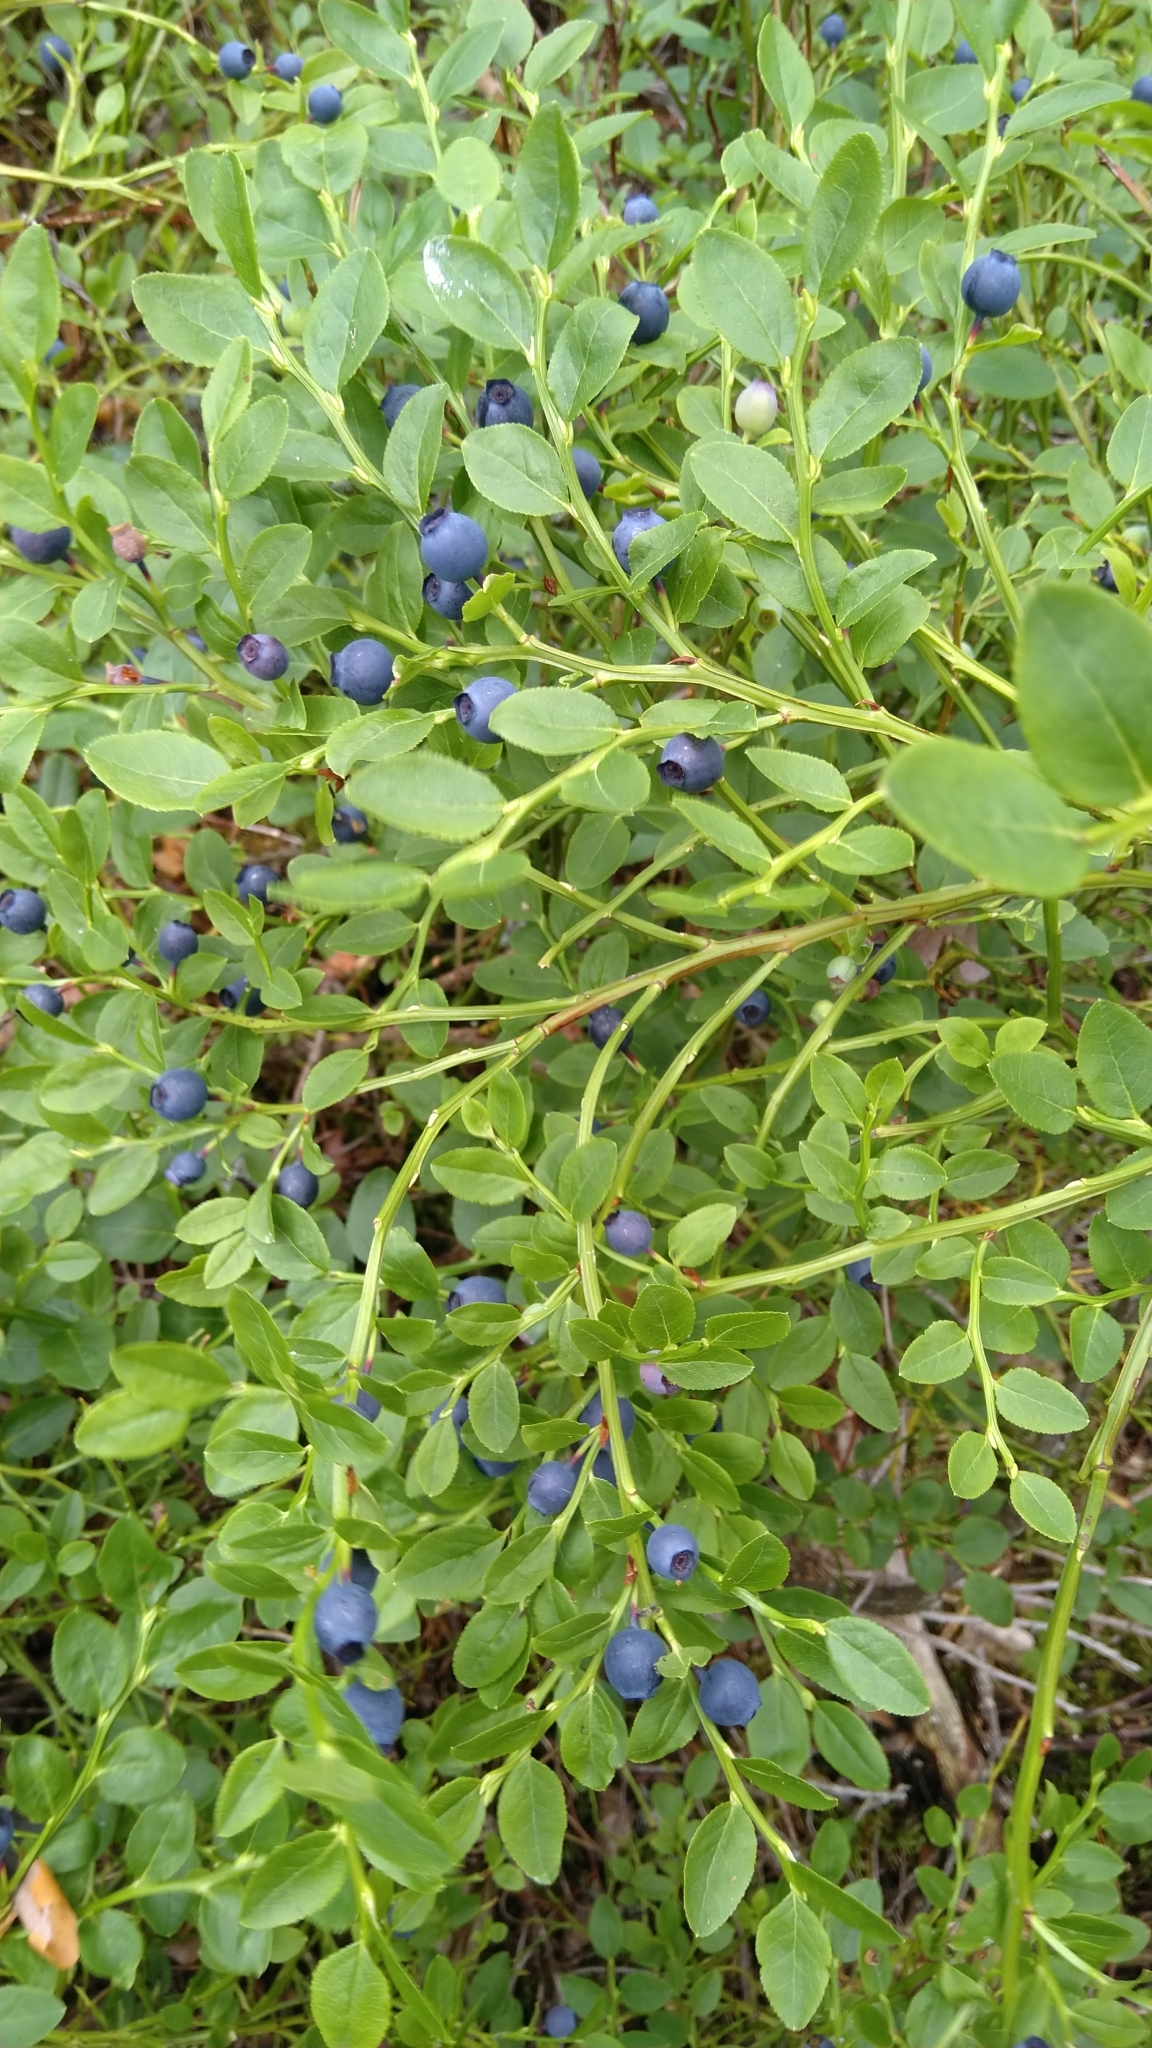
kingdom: Plantae
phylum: Tracheophyta
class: Magnoliopsida
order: Ericales
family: Ericaceae
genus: Vaccinium
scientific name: Vaccinium myrtillus
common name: Bilberry
